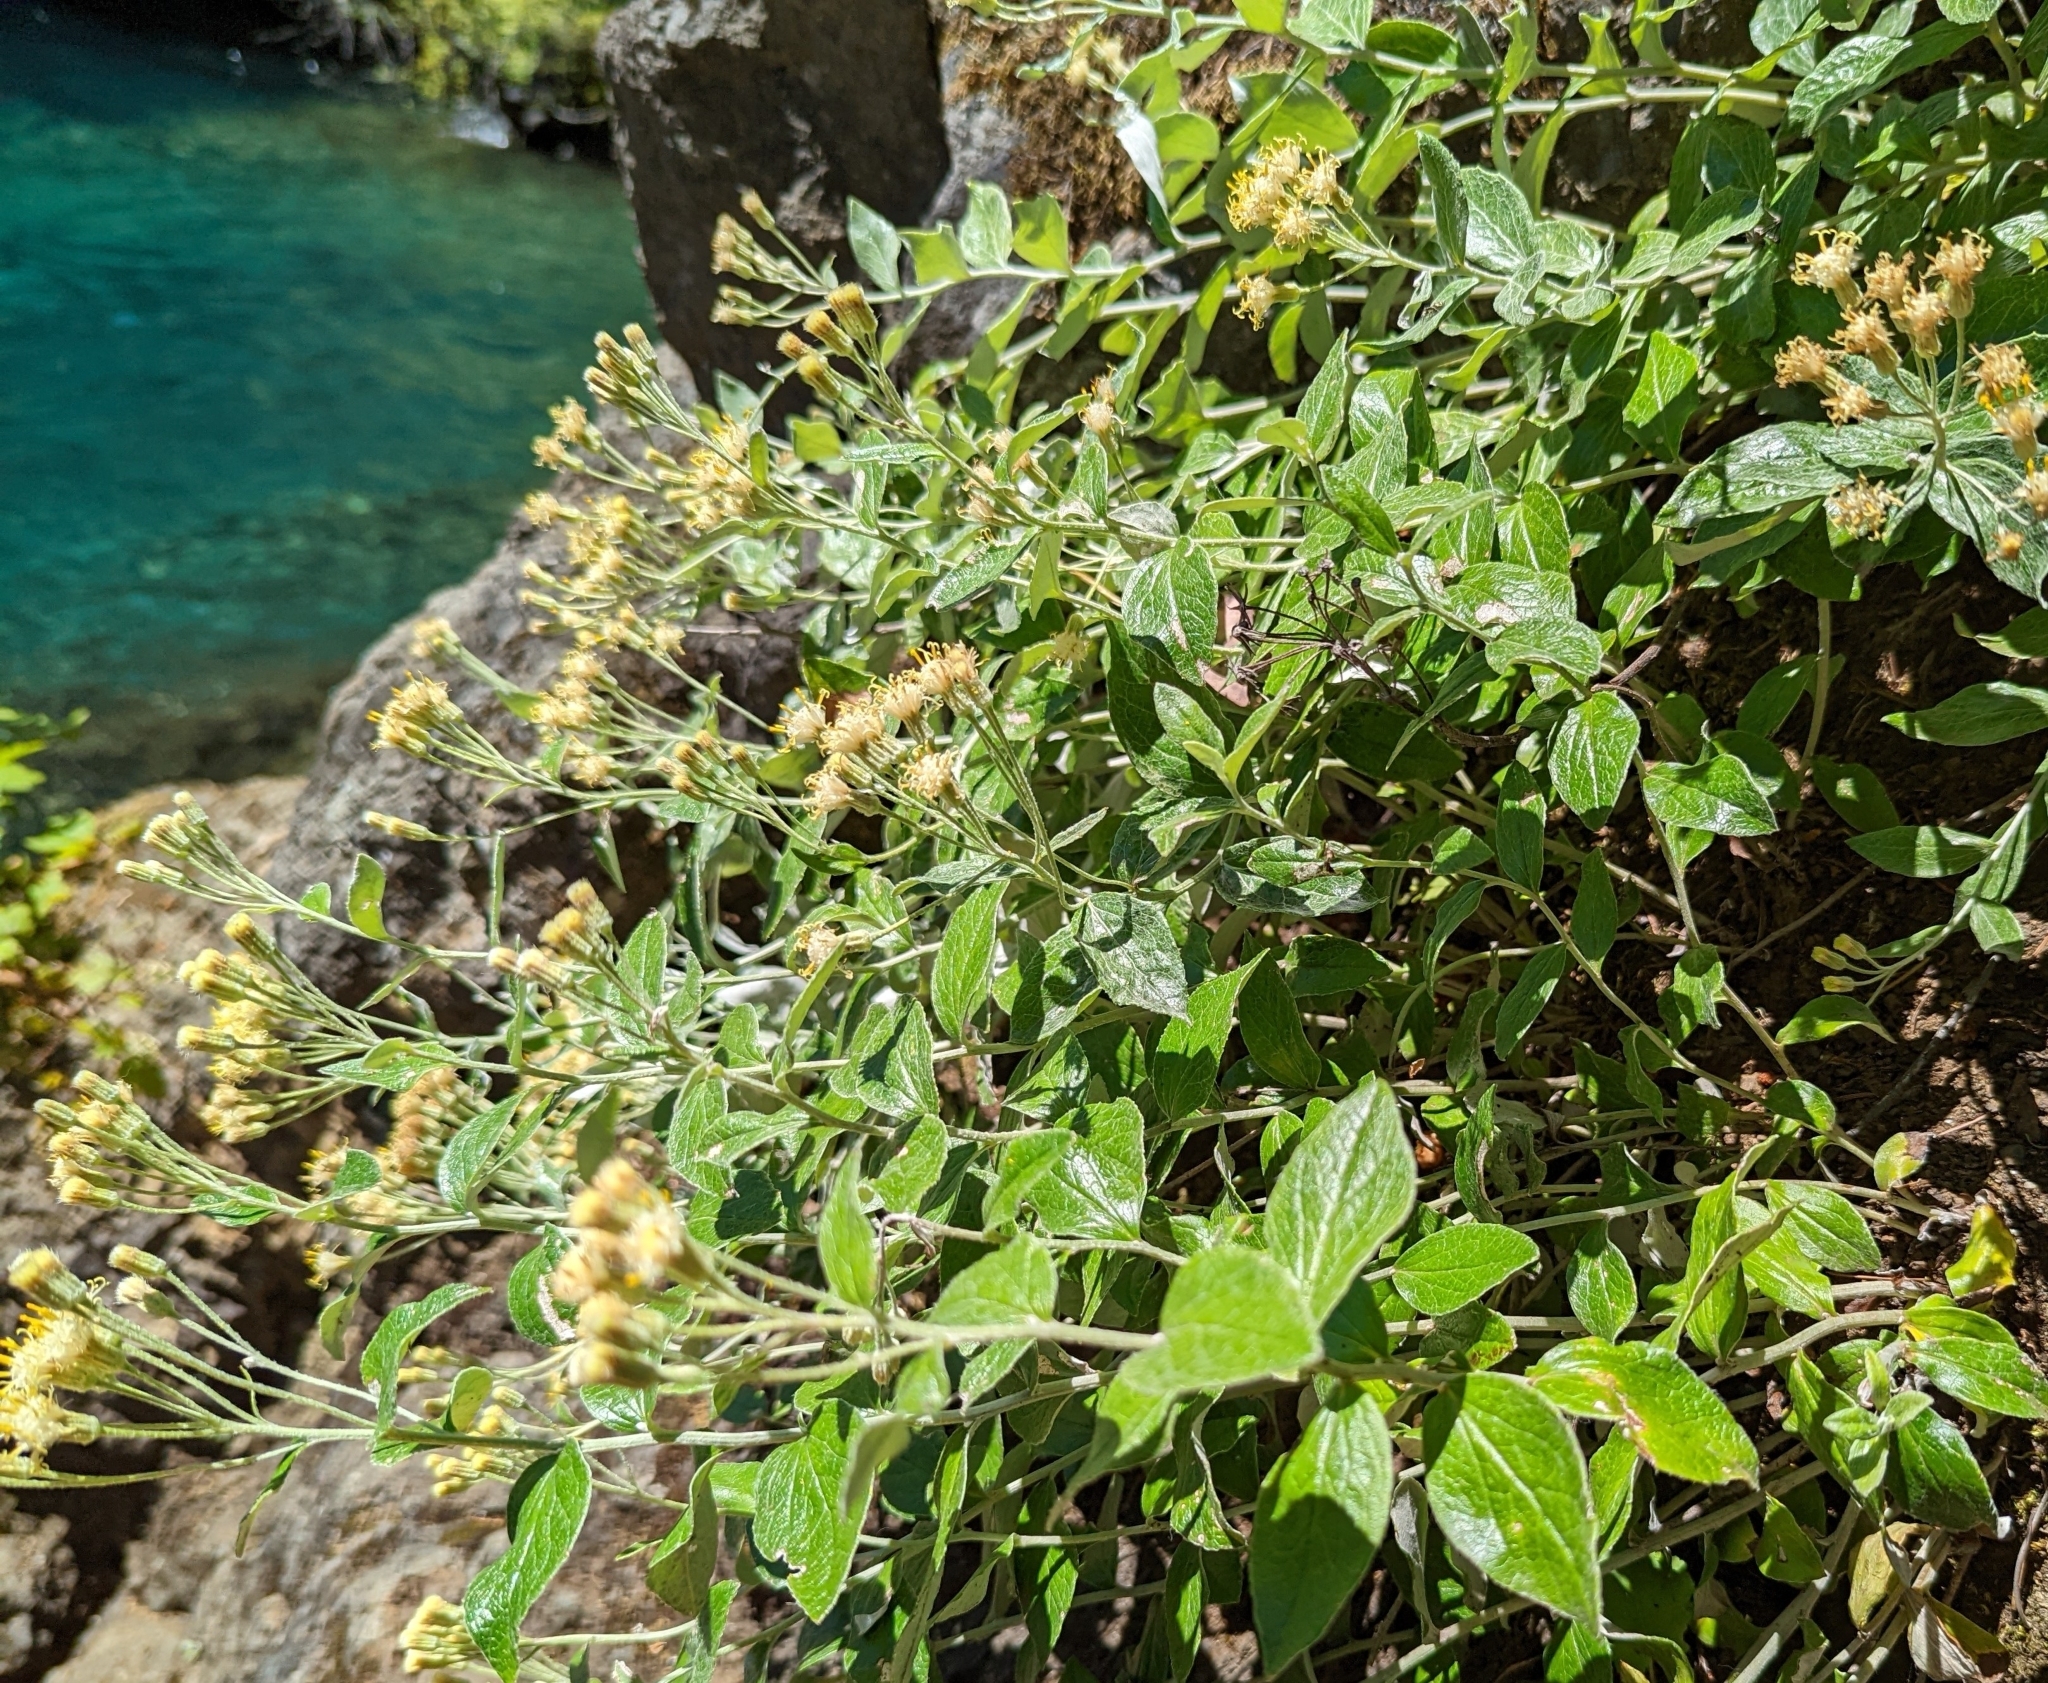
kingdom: Plantae
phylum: Tracheophyta
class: Magnoliopsida
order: Asterales
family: Asteraceae
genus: Luina
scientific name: Luina hypoleuca
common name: Little-leaved luina
